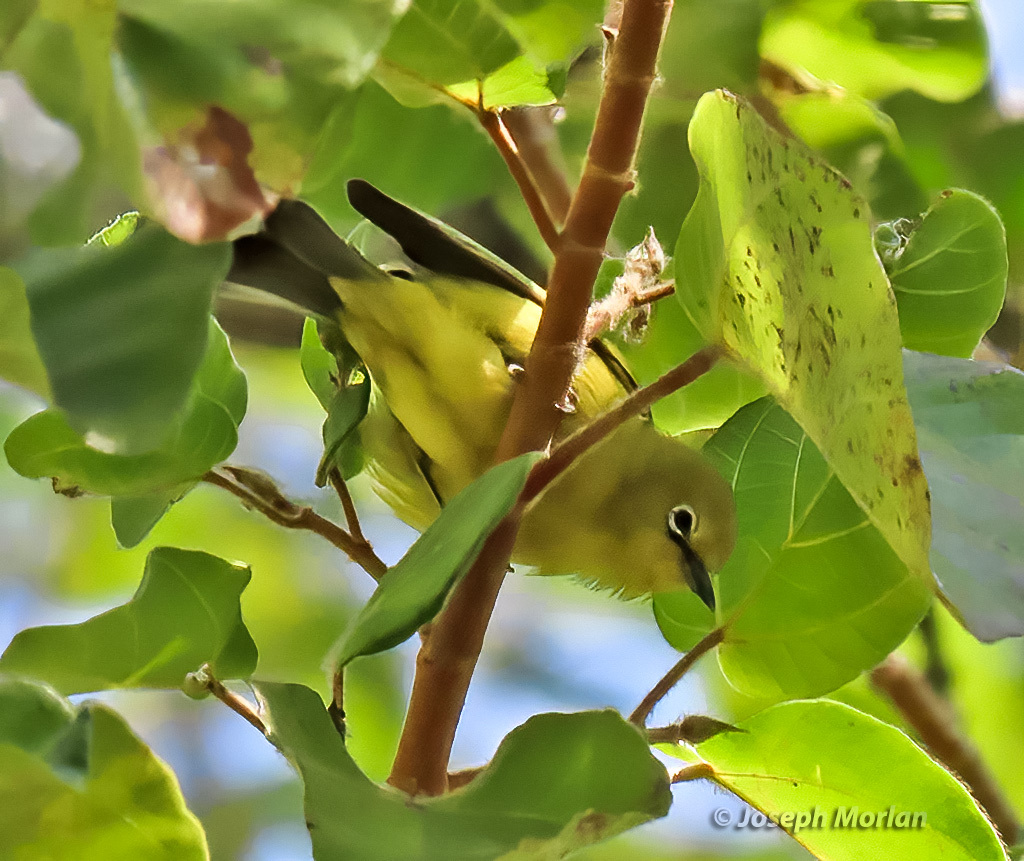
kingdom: Animalia
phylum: Chordata
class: Aves
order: Passeriformes
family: Zosteropidae
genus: Zosterops
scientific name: Zosterops anderssoni
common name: Southern yellow white-eye
